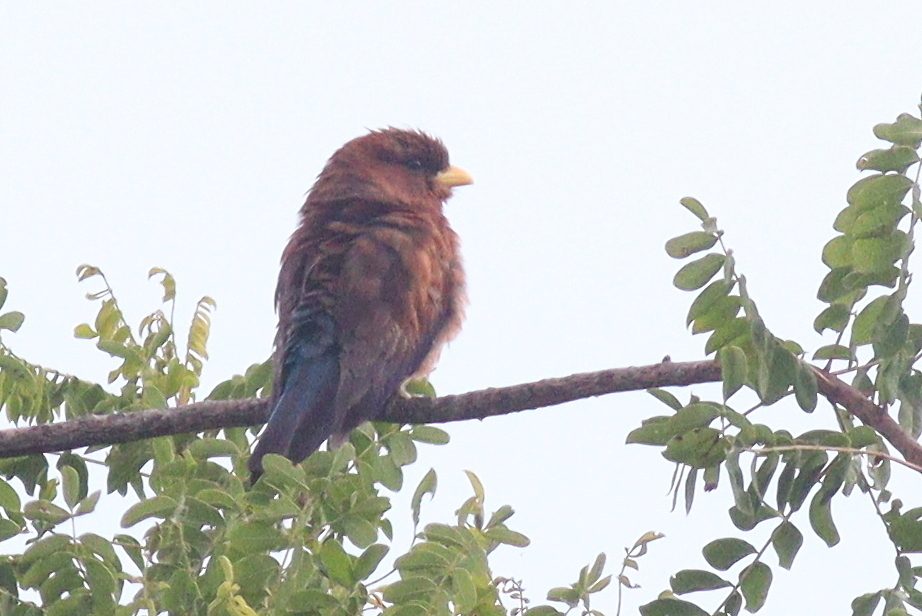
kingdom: Animalia
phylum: Chordata
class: Aves
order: Coraciiformes
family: Coraciidae
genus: Eurystomus
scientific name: Eurystomus glaucurus
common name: Broad-billed roller
